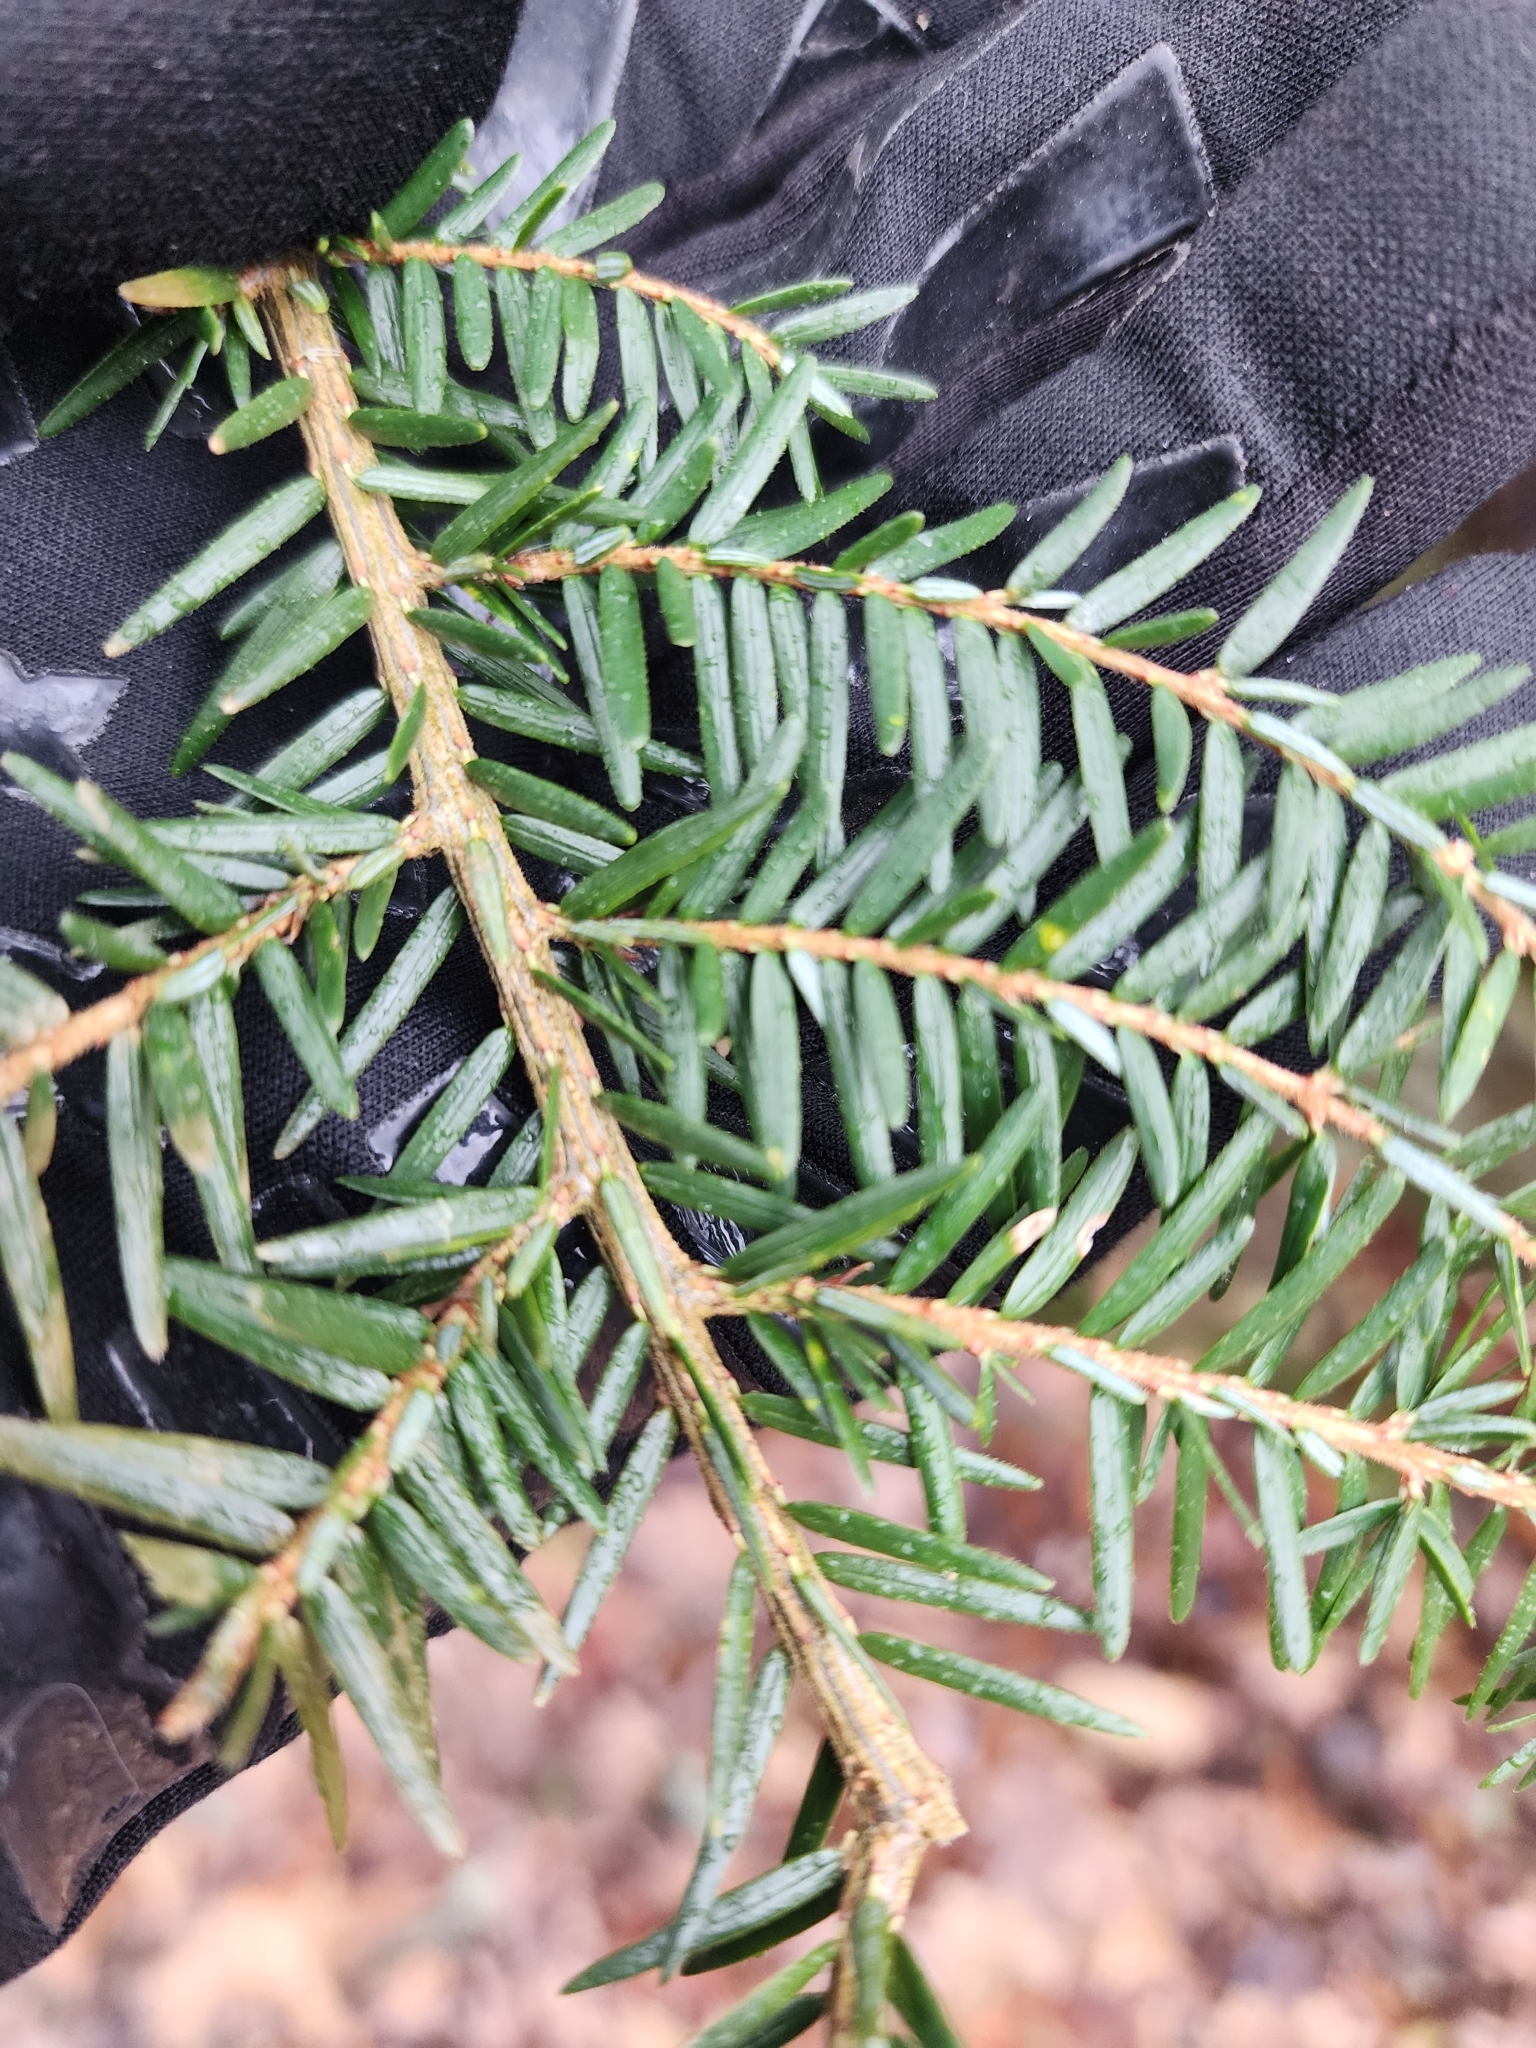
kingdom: Plantae
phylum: Tracheophyta
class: Pinopsida
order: Pinales
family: Pinaceae
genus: Tsuga
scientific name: Tsuga canadensis
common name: Eastern hemlock
